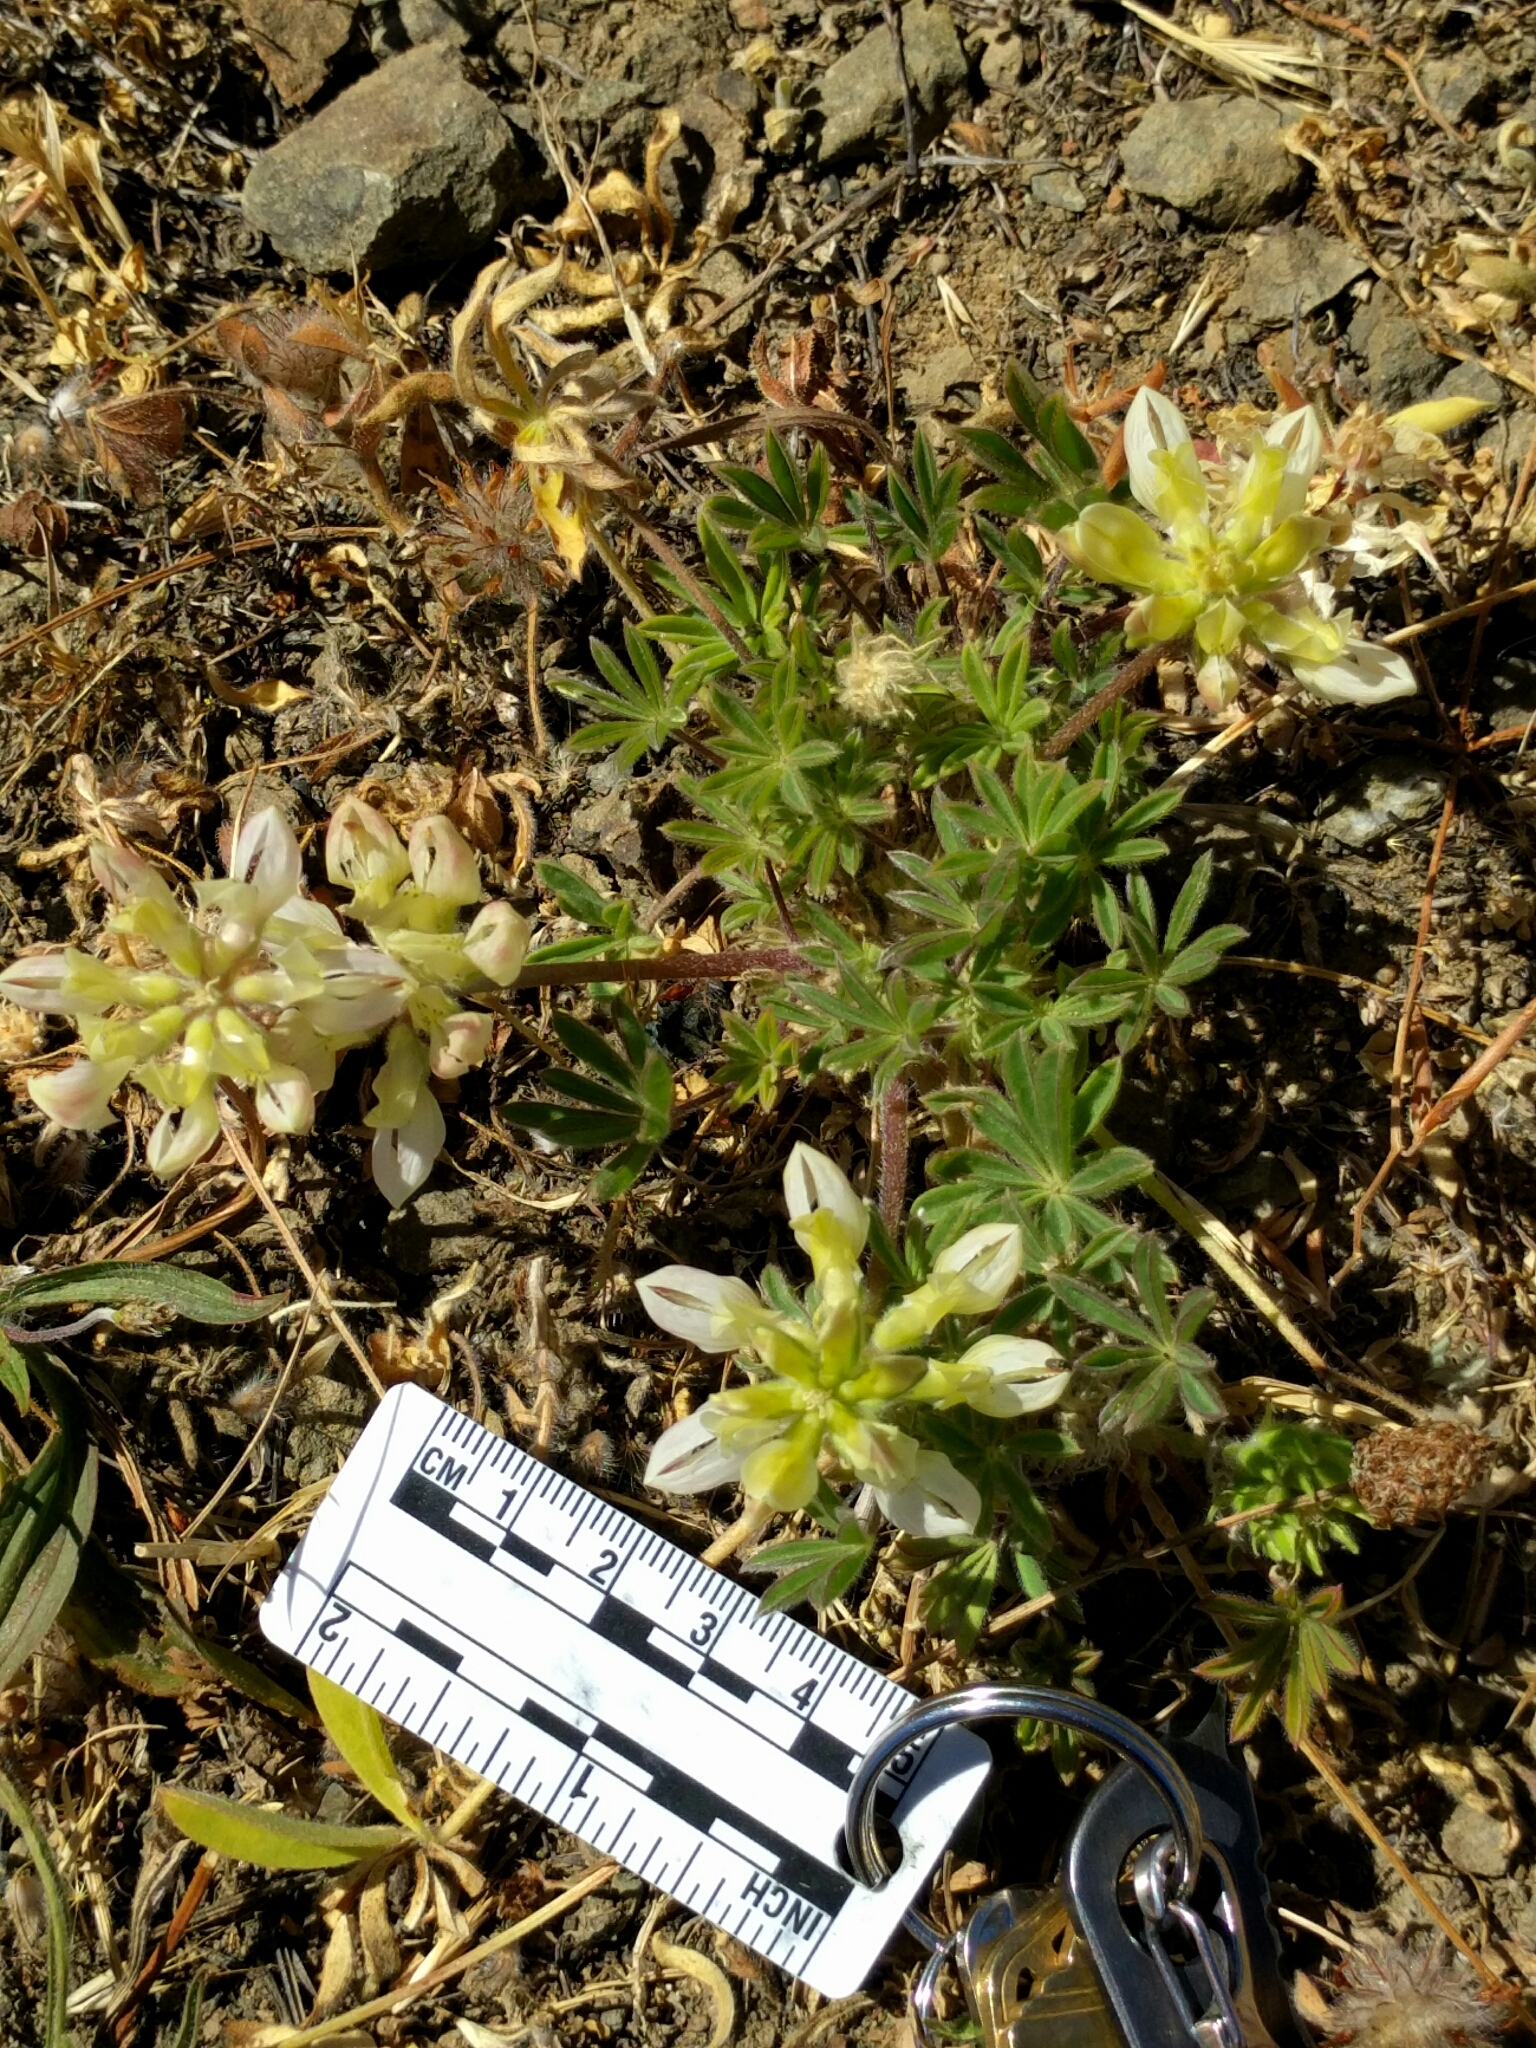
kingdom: Plantae
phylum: Tracheophyta
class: Magnoliopsida
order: Fabales
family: Fabaceae
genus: Lupinus
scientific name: Lupinus microcarpus
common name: Chick lupine
